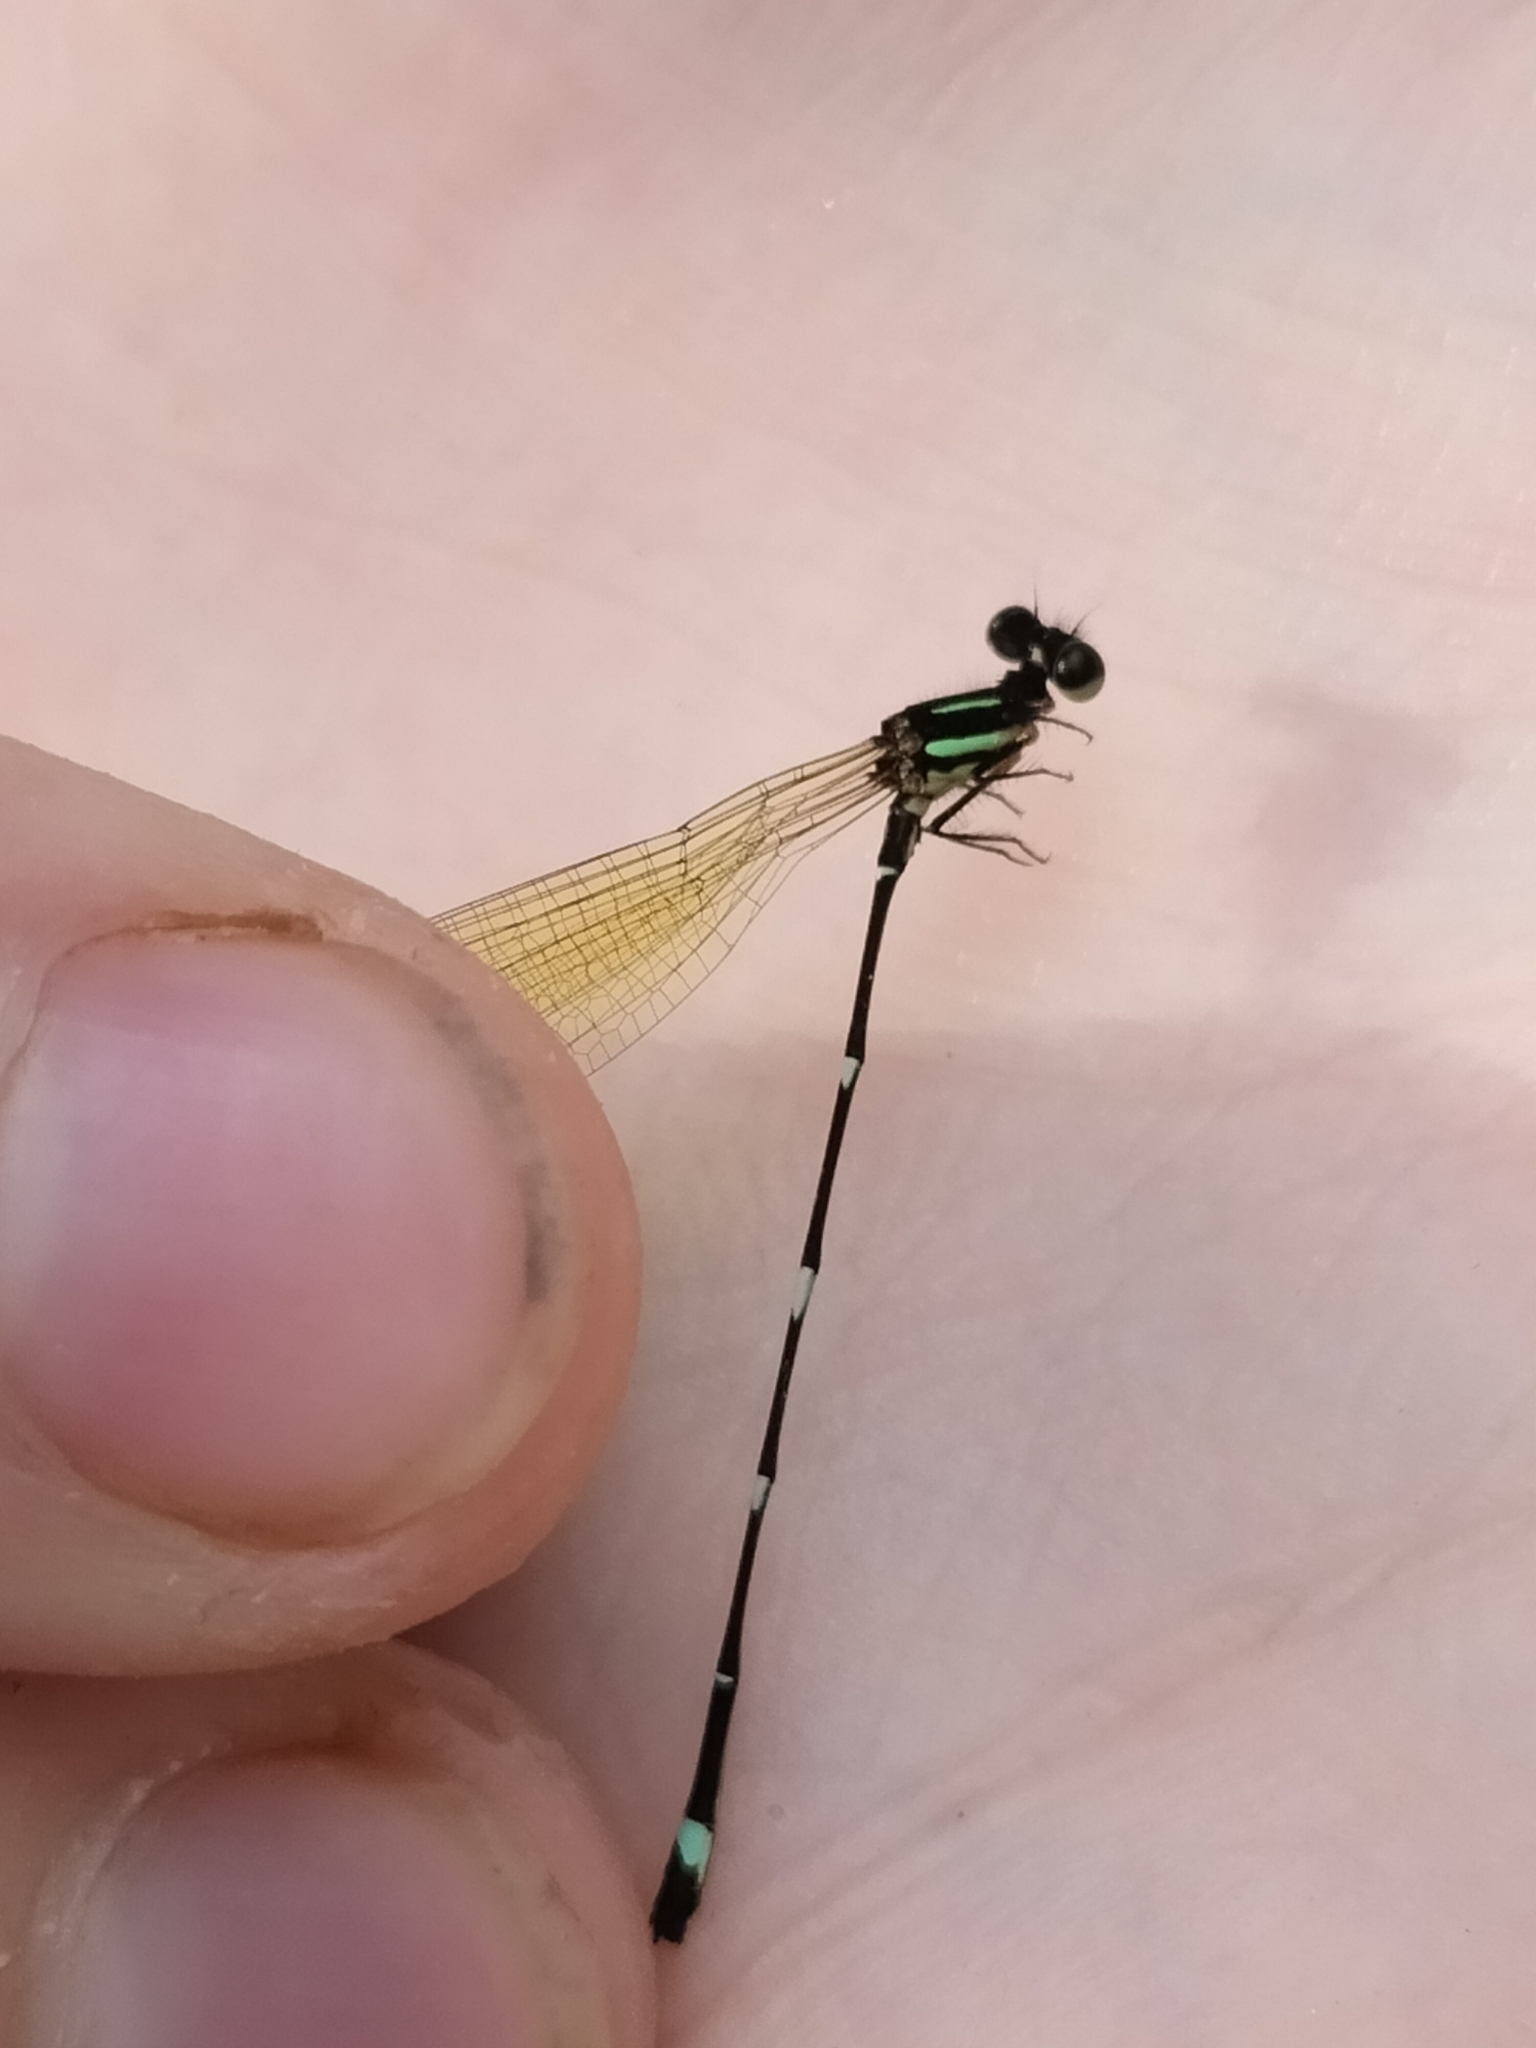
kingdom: Animalia
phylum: Arthropoda
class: Insecta
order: Odonata
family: Platycnemididae
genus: Nososticta
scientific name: Nososticta solitaria
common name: Fivespot threadtail
